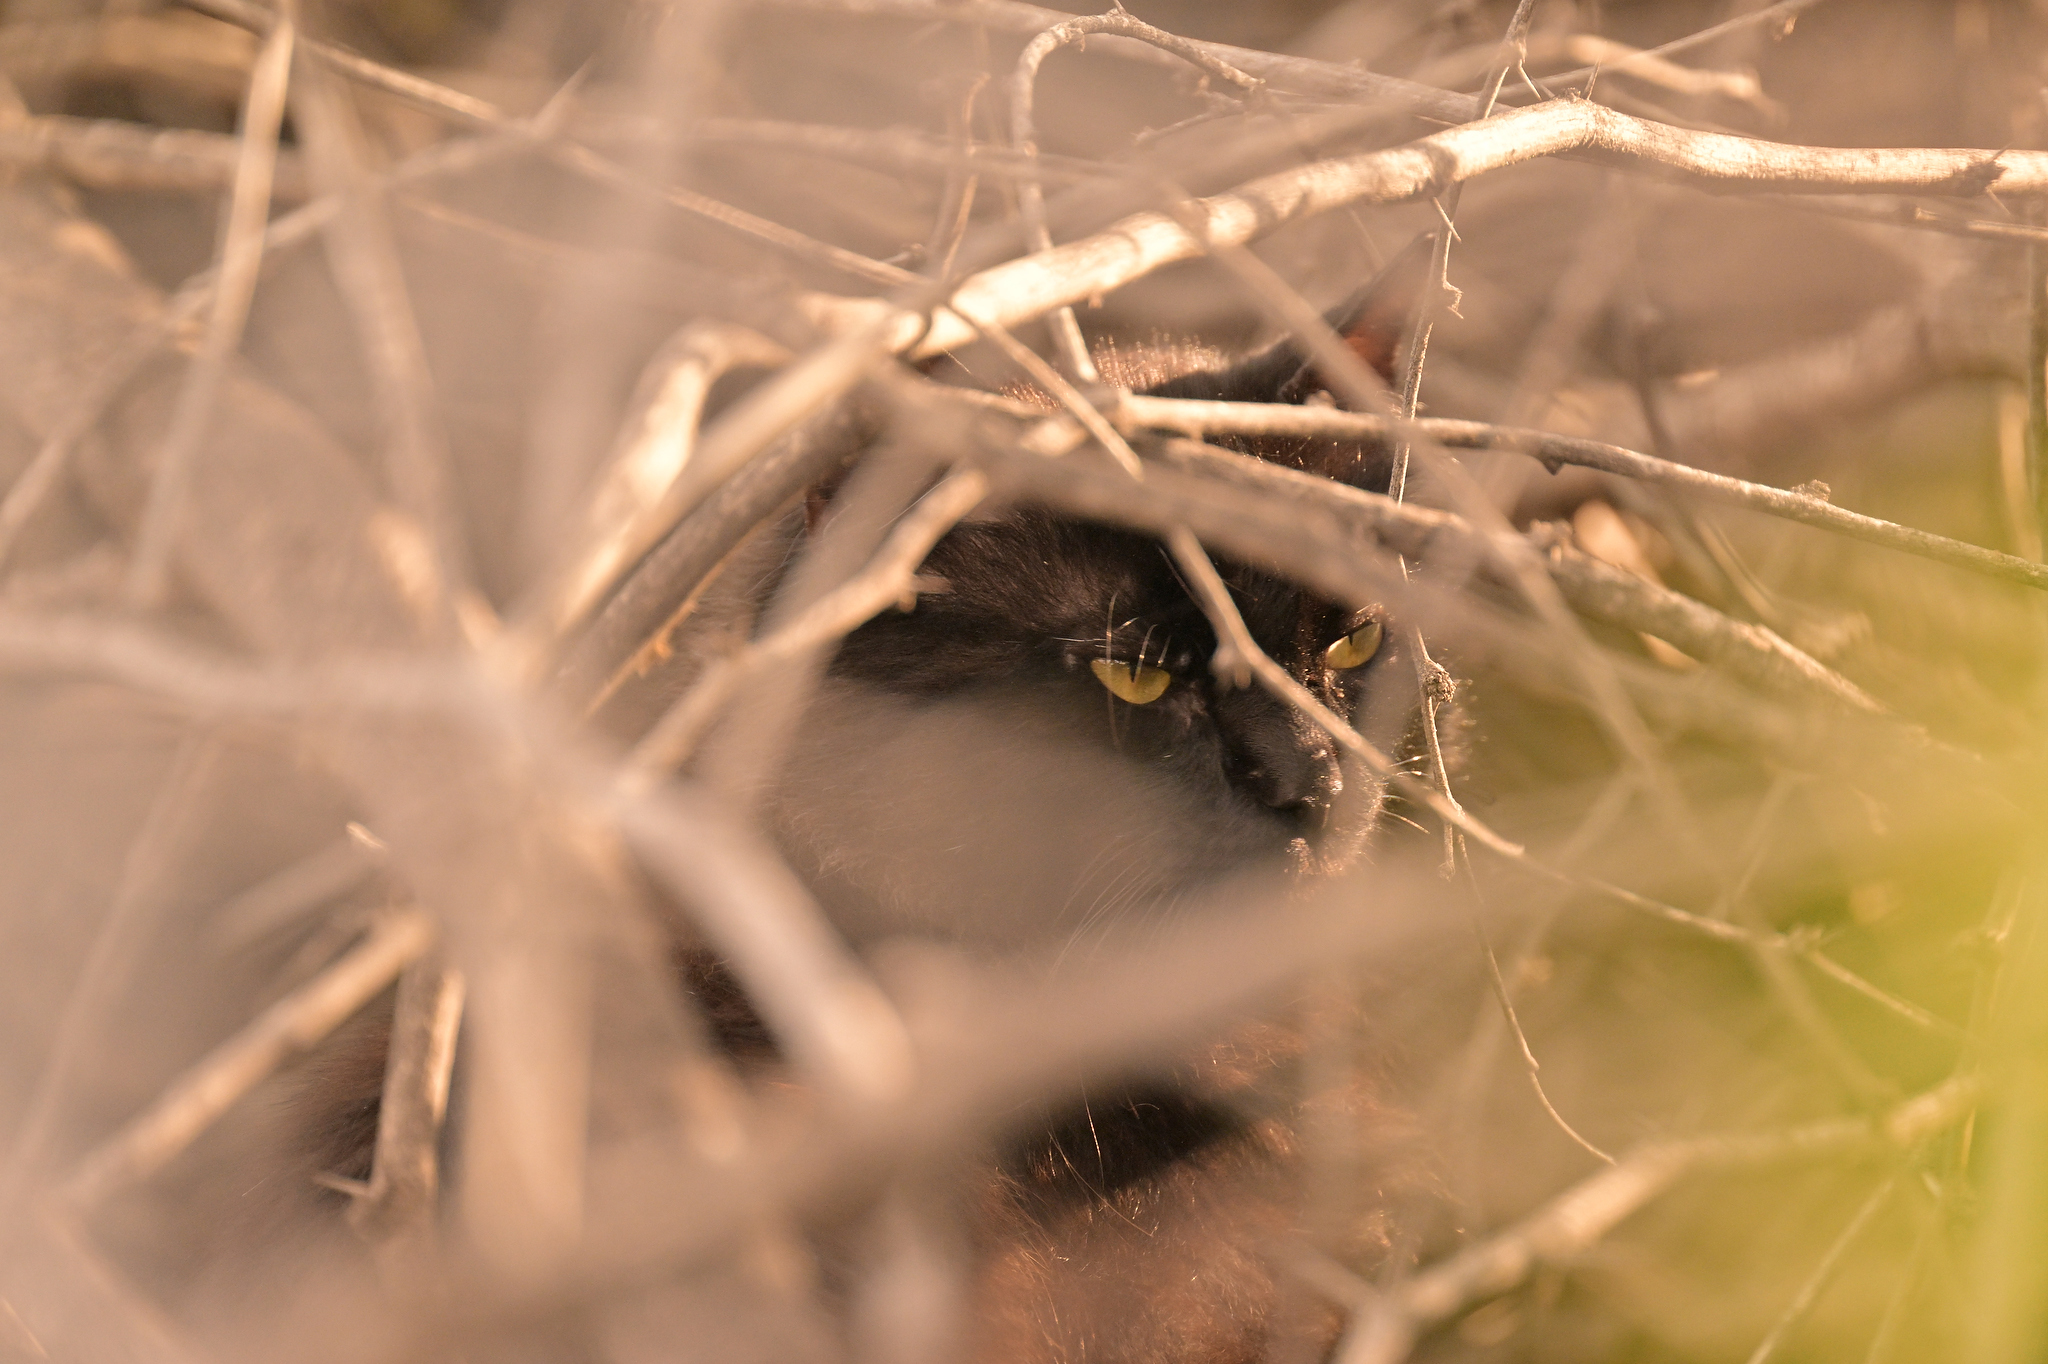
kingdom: Animalia
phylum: Chordata
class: Mammalia
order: Carnivora
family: Felidae
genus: Felis
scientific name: Felis catus
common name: Domestic cat
